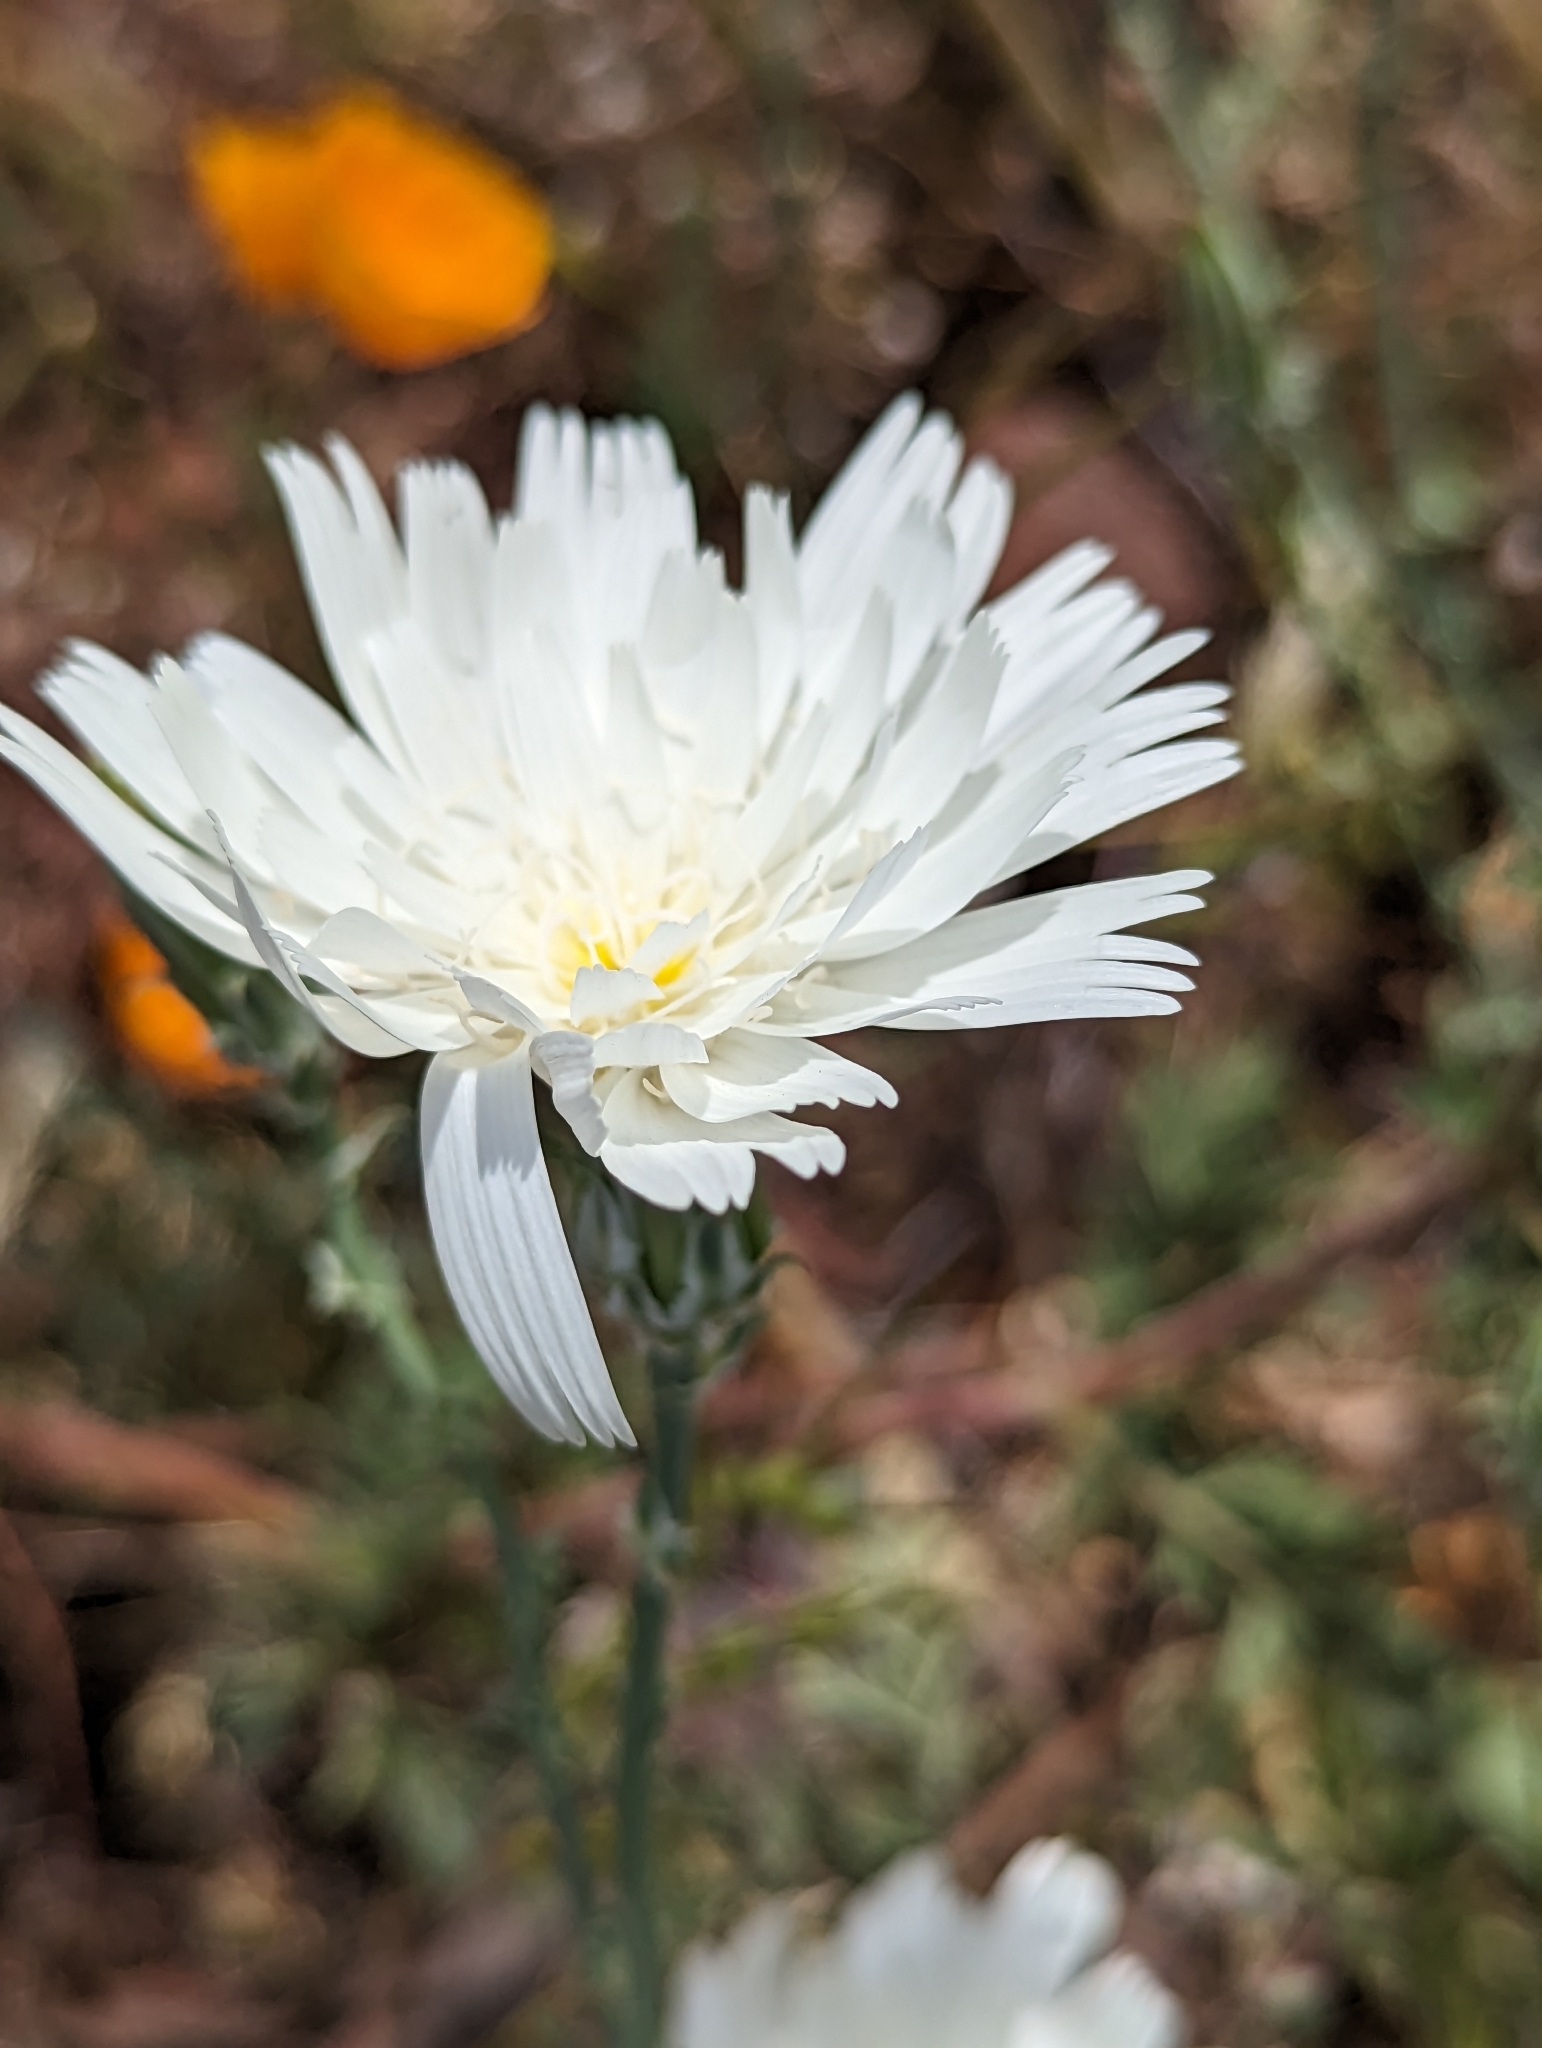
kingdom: Plantae
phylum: Tracheophyta
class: Magnoliopsida
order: Asterales
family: Asteraceae
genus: Rafinesquia
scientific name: Rafinesquia neomexicana
